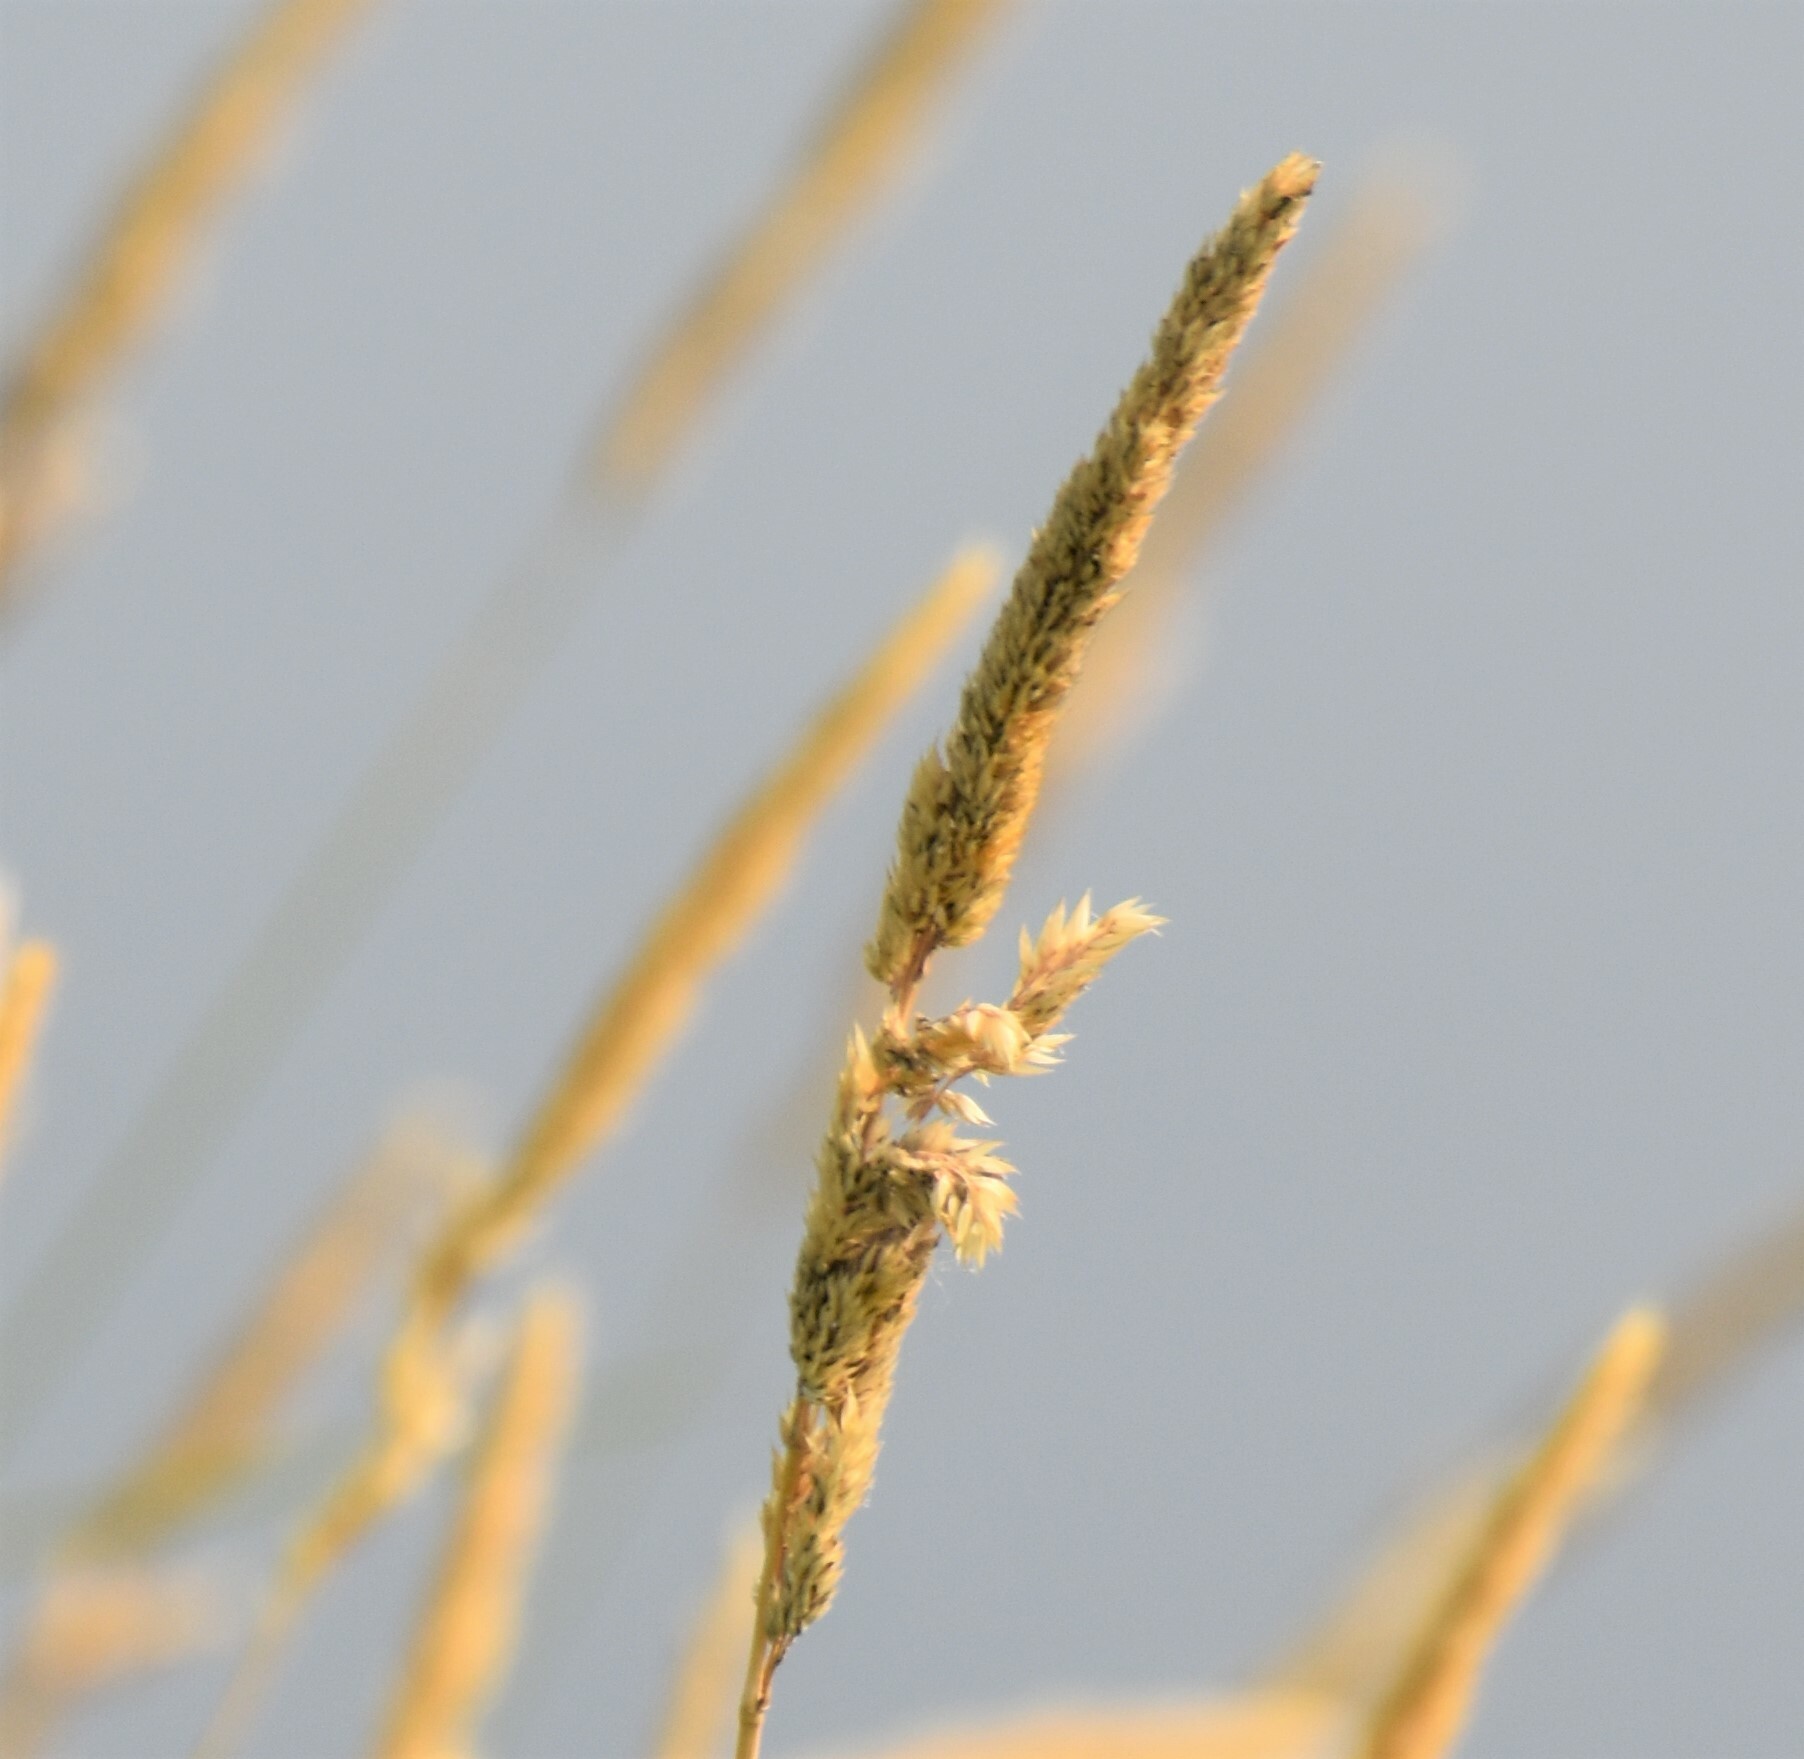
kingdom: Plantae
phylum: Tracheophyta
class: Liliopsida
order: Poales
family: Poaceae
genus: Phalaris
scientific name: Phalaris arundinacea
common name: Reed canary-grass
